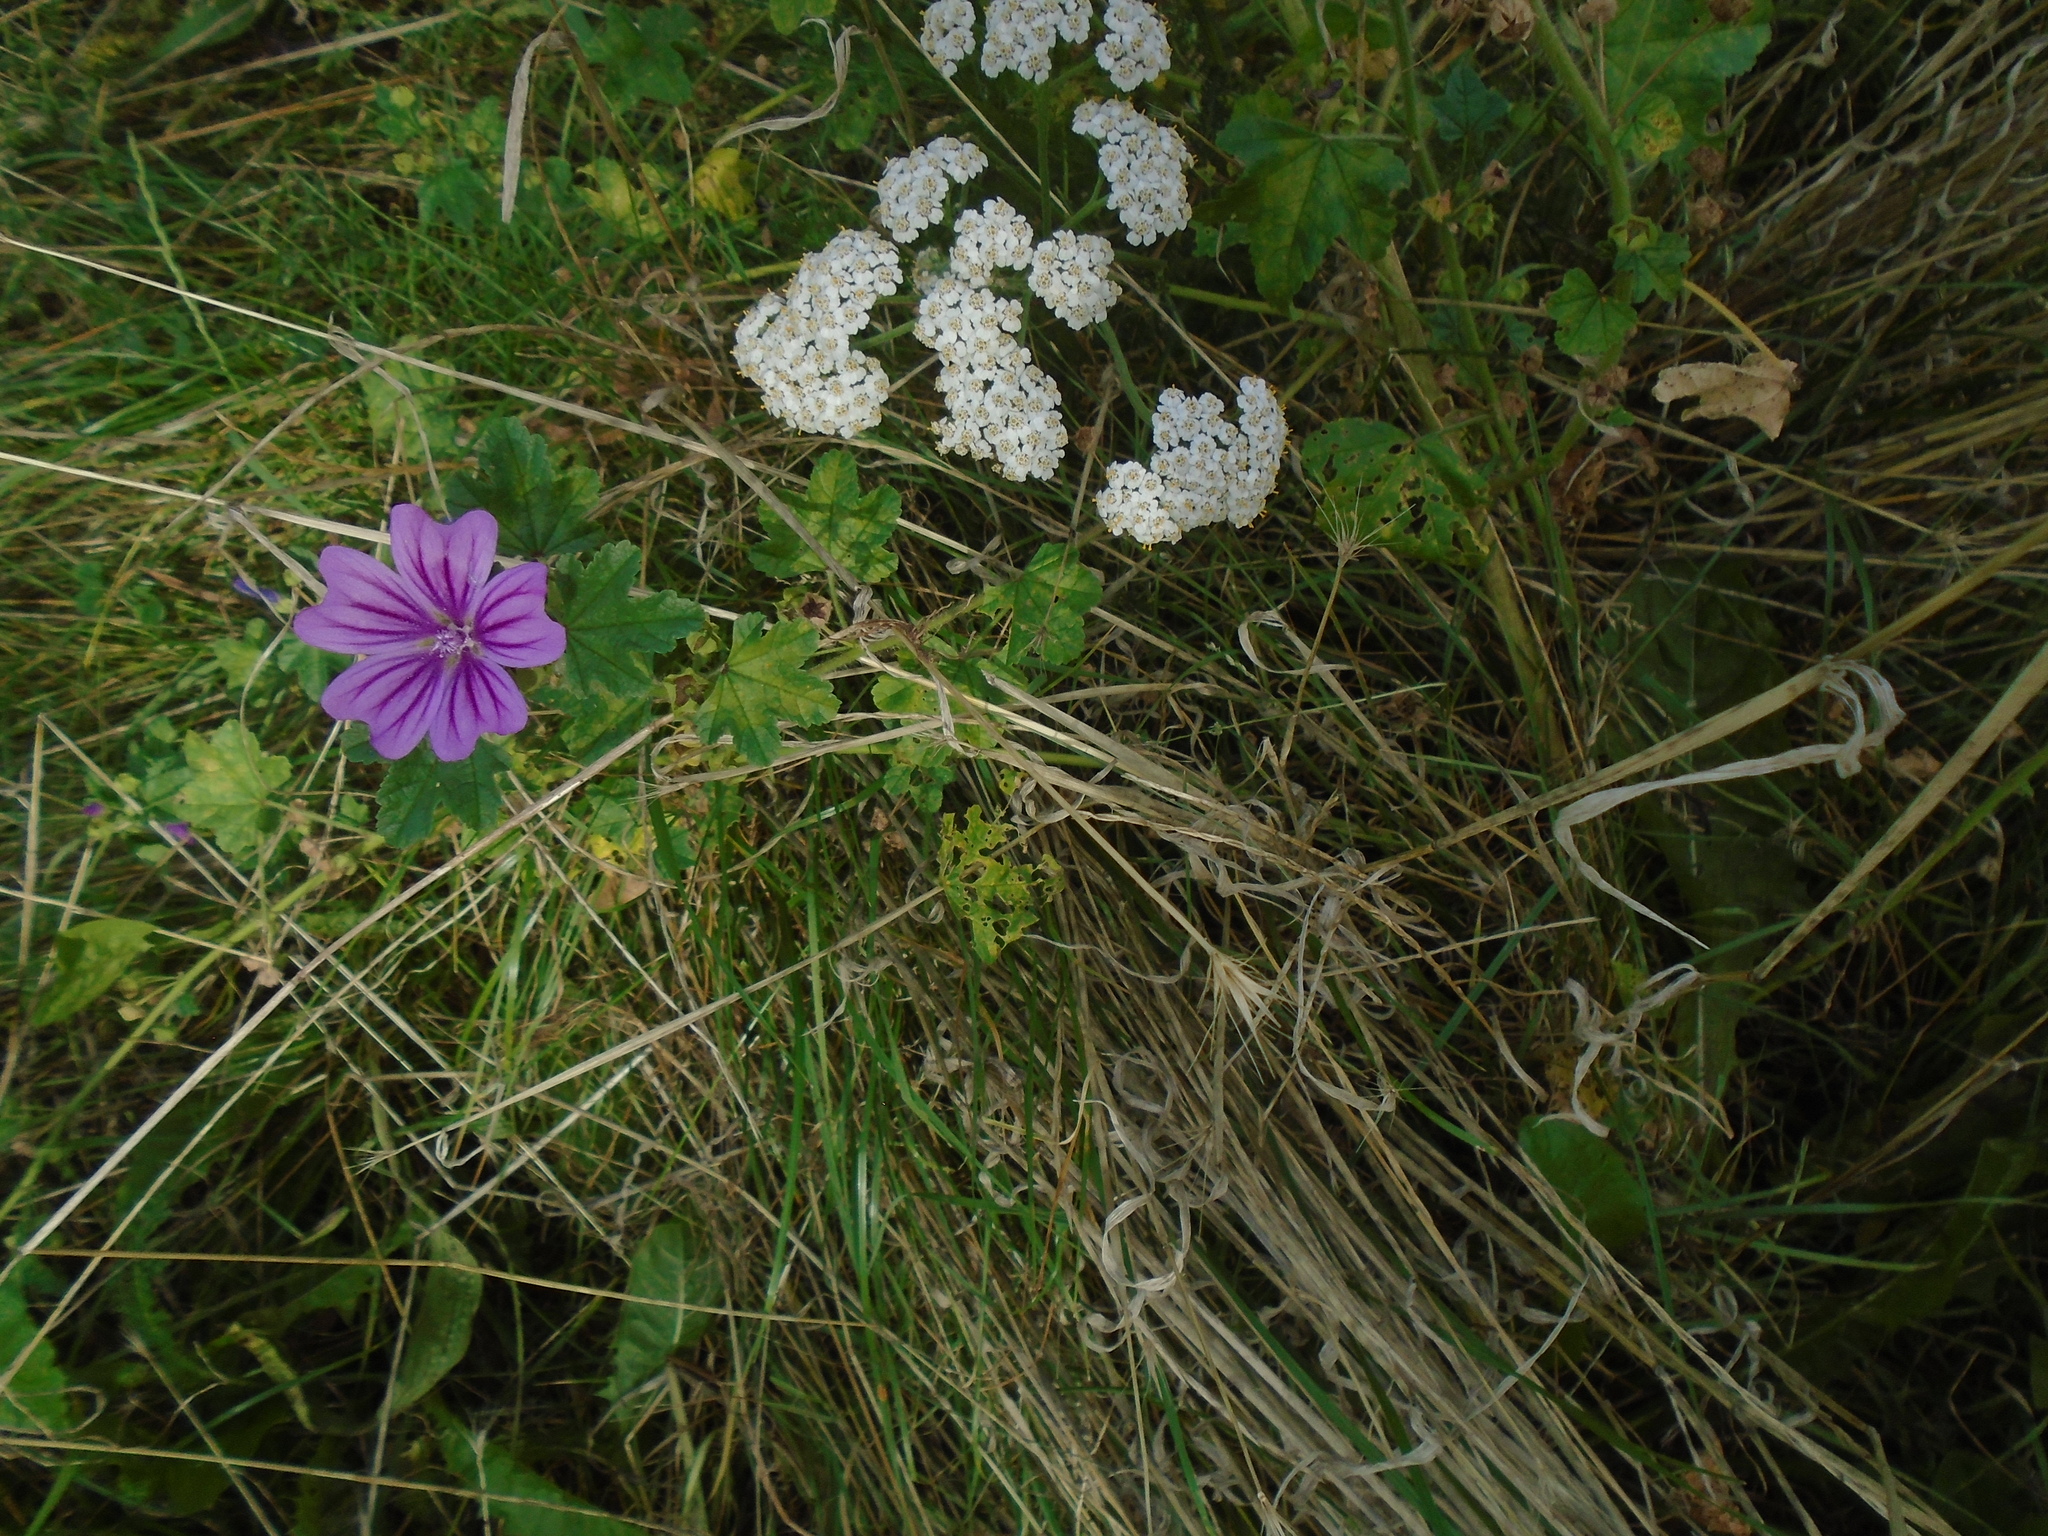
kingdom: Plantae
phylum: Tracheophyta
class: Magnoliopsida
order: Malvales
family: Malvaceae
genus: Malva
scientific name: Malva sylvestris
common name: Common mallow
